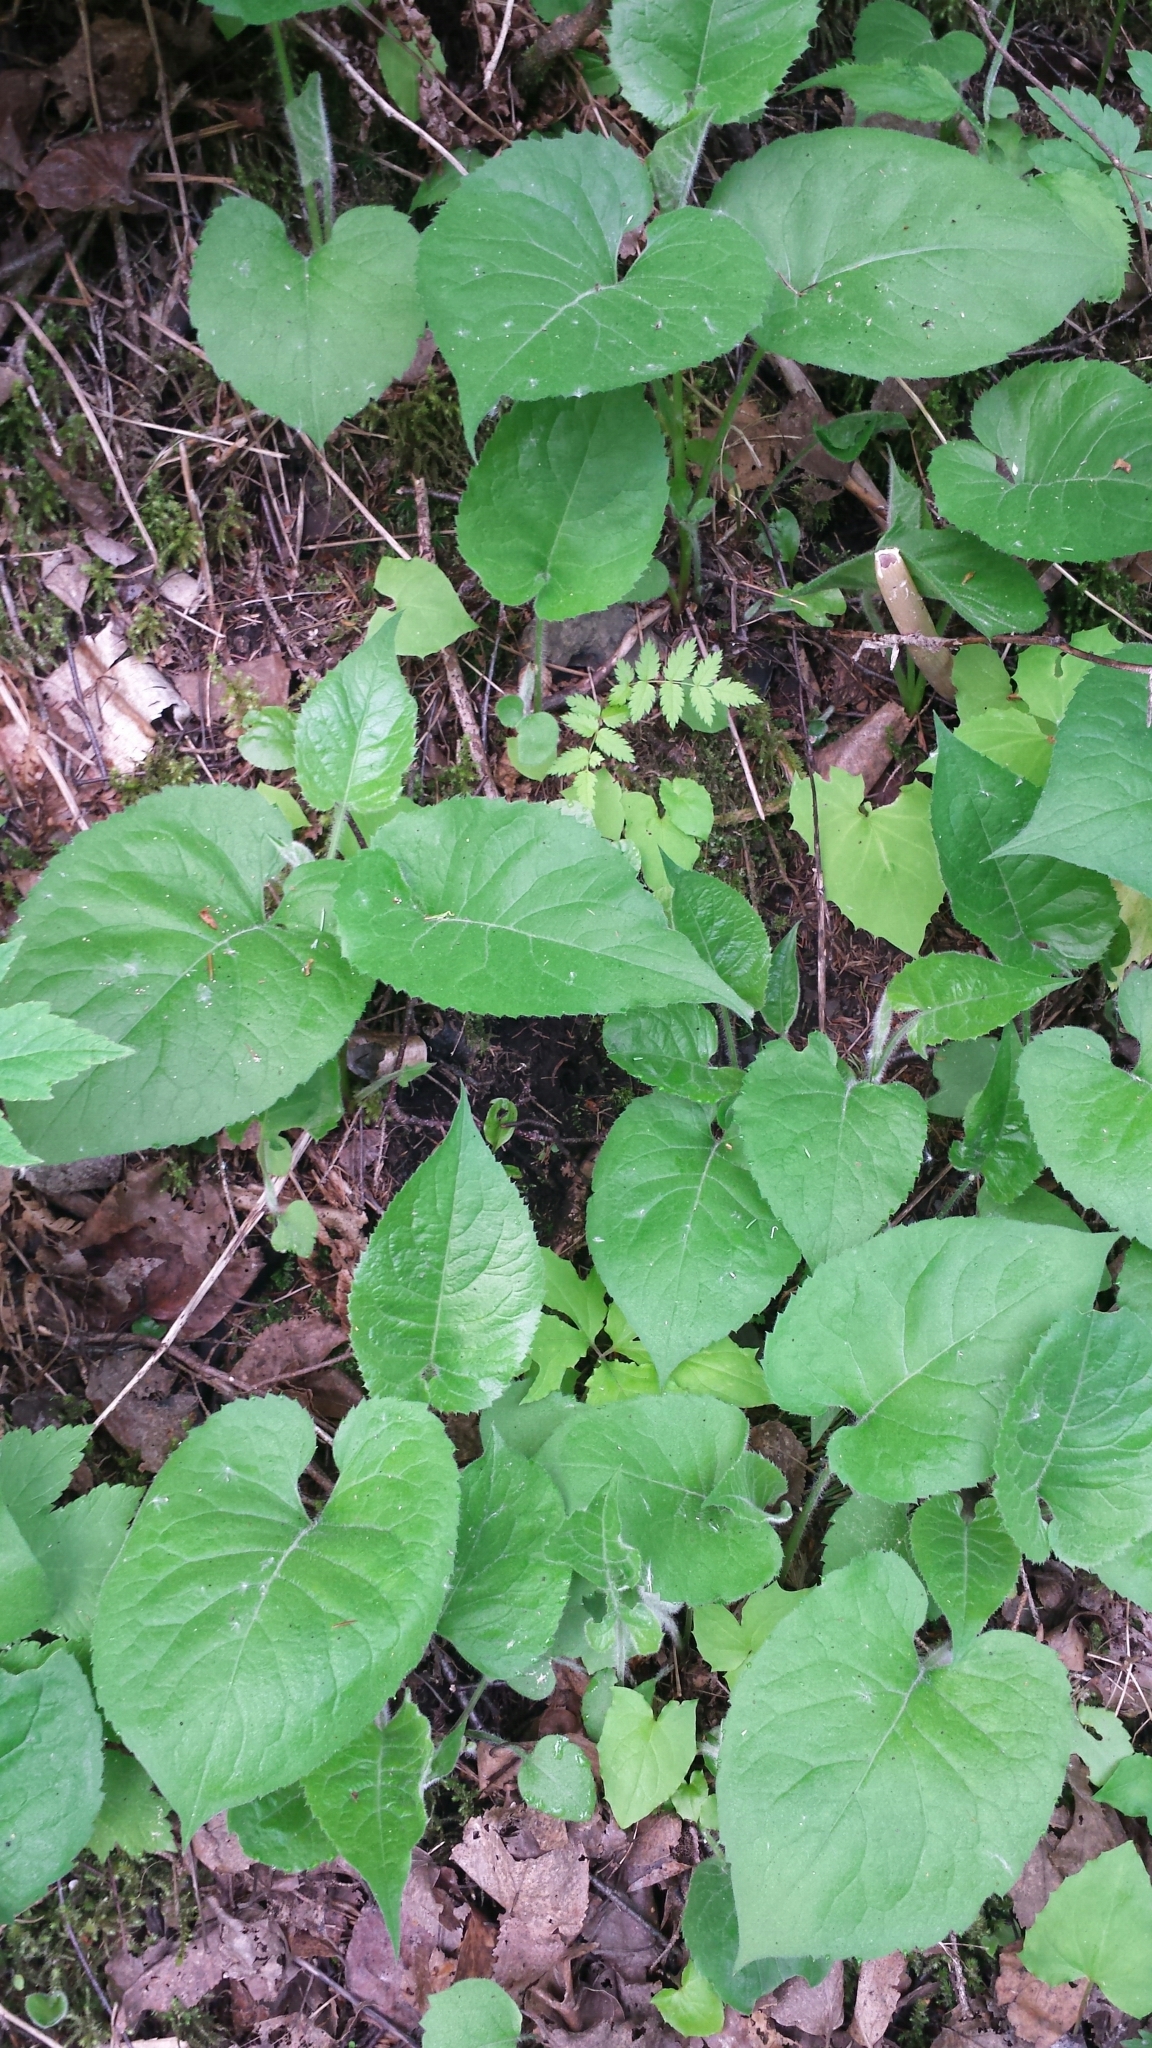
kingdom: Plantae
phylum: Tracheophyta
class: Magnoliopsida
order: Asterales
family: Asteraceae
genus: Eurybia
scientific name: Eurybia macrophylla
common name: Big-leaved aster
